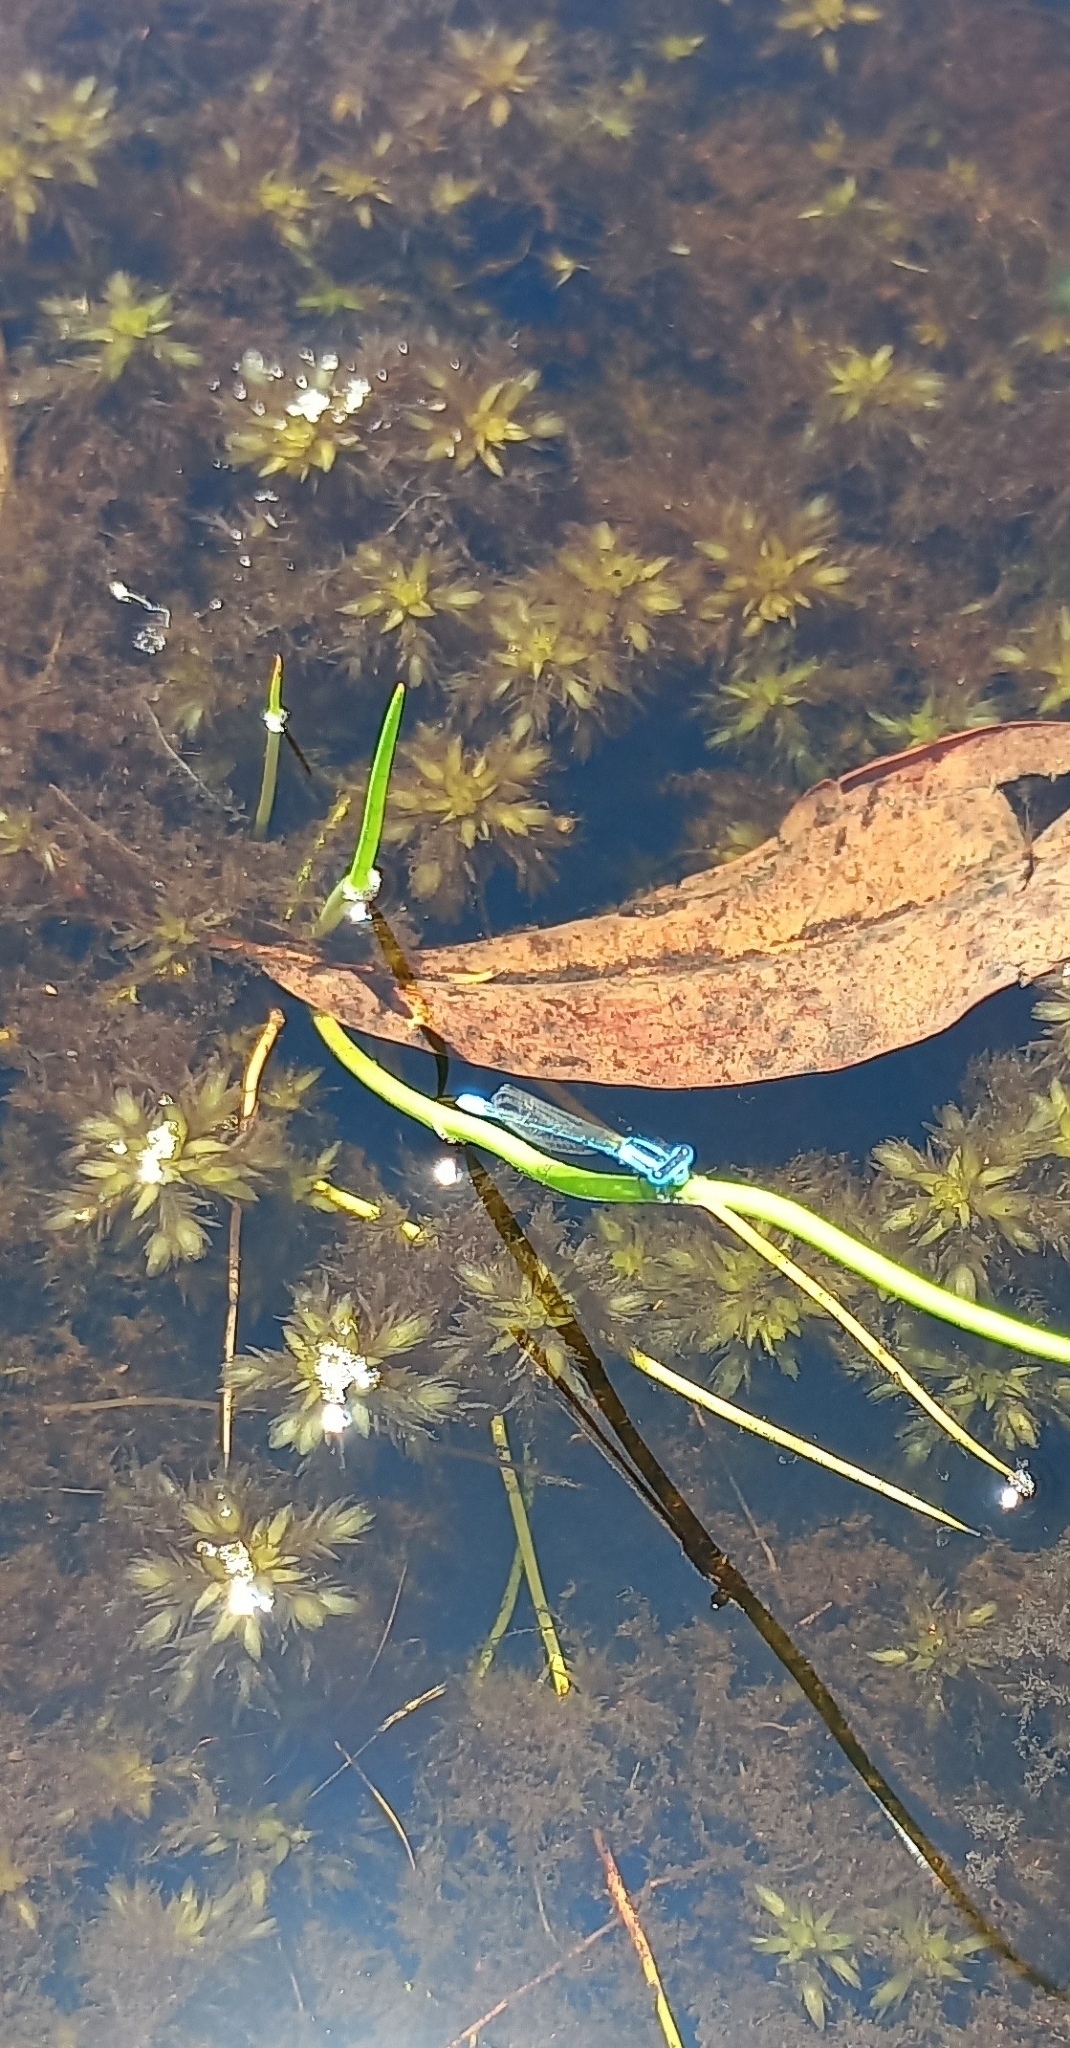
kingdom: Animalia
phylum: Arthropoda
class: Insecta
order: Odonata
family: Coenagrionidae
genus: Africallagma
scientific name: Africallagma glaucum
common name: Swamp bluet
